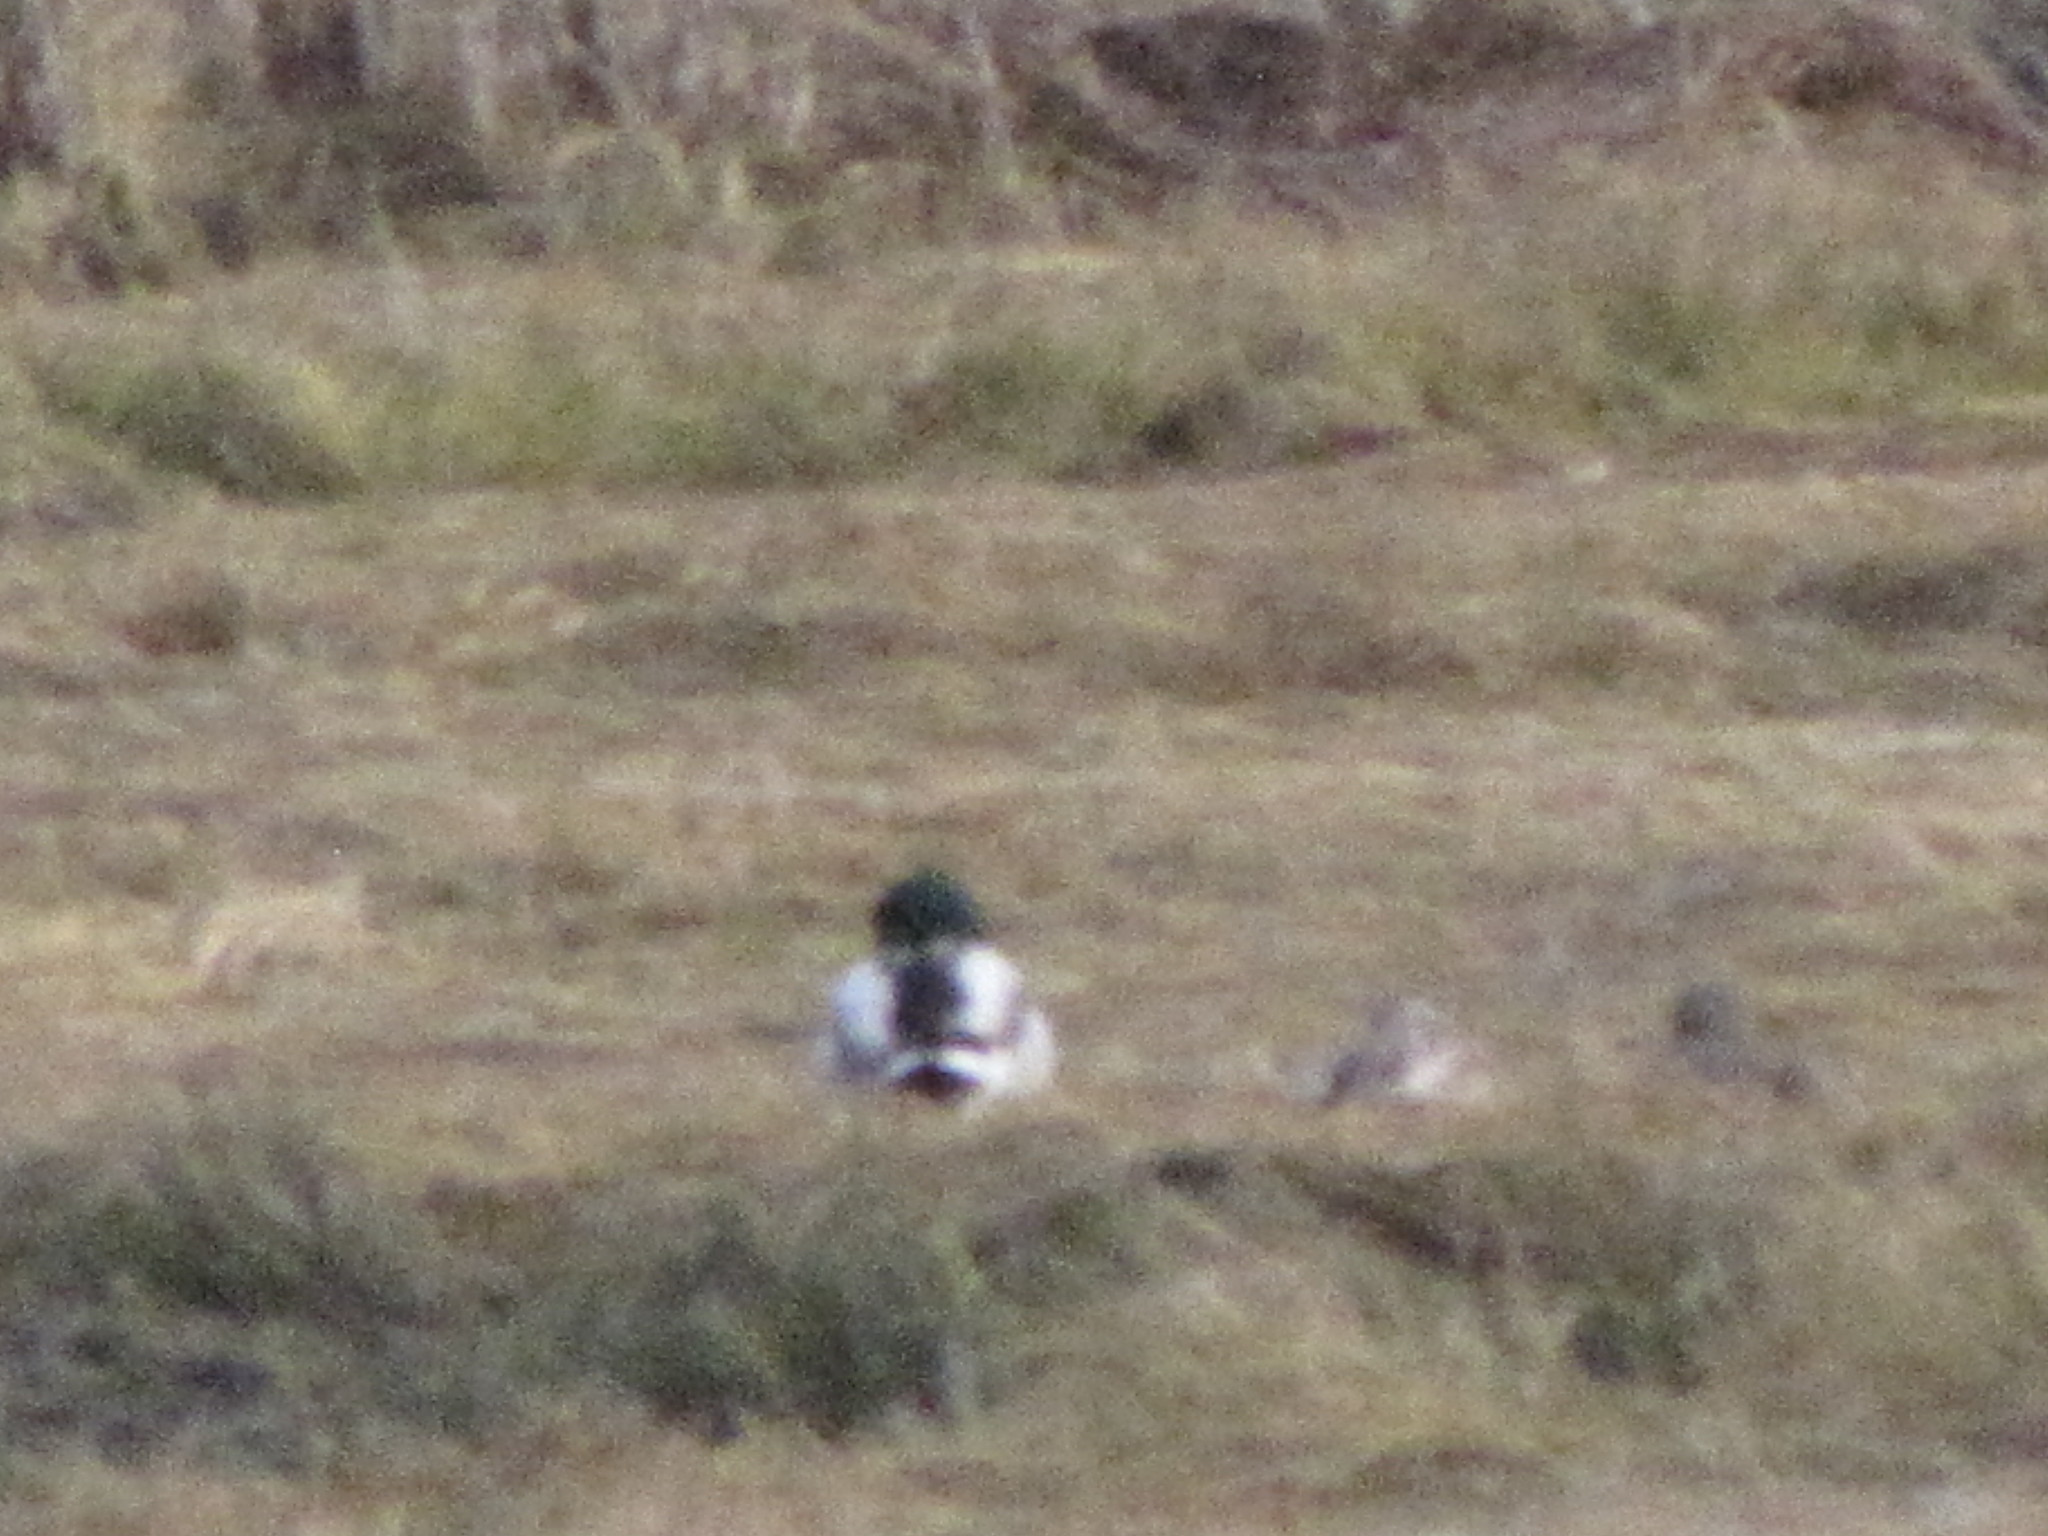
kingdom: Animalia
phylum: Chordata
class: Aves
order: Anseriformes
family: Anatidae
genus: Anas
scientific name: Anas platyrhynchos
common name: Mallard
